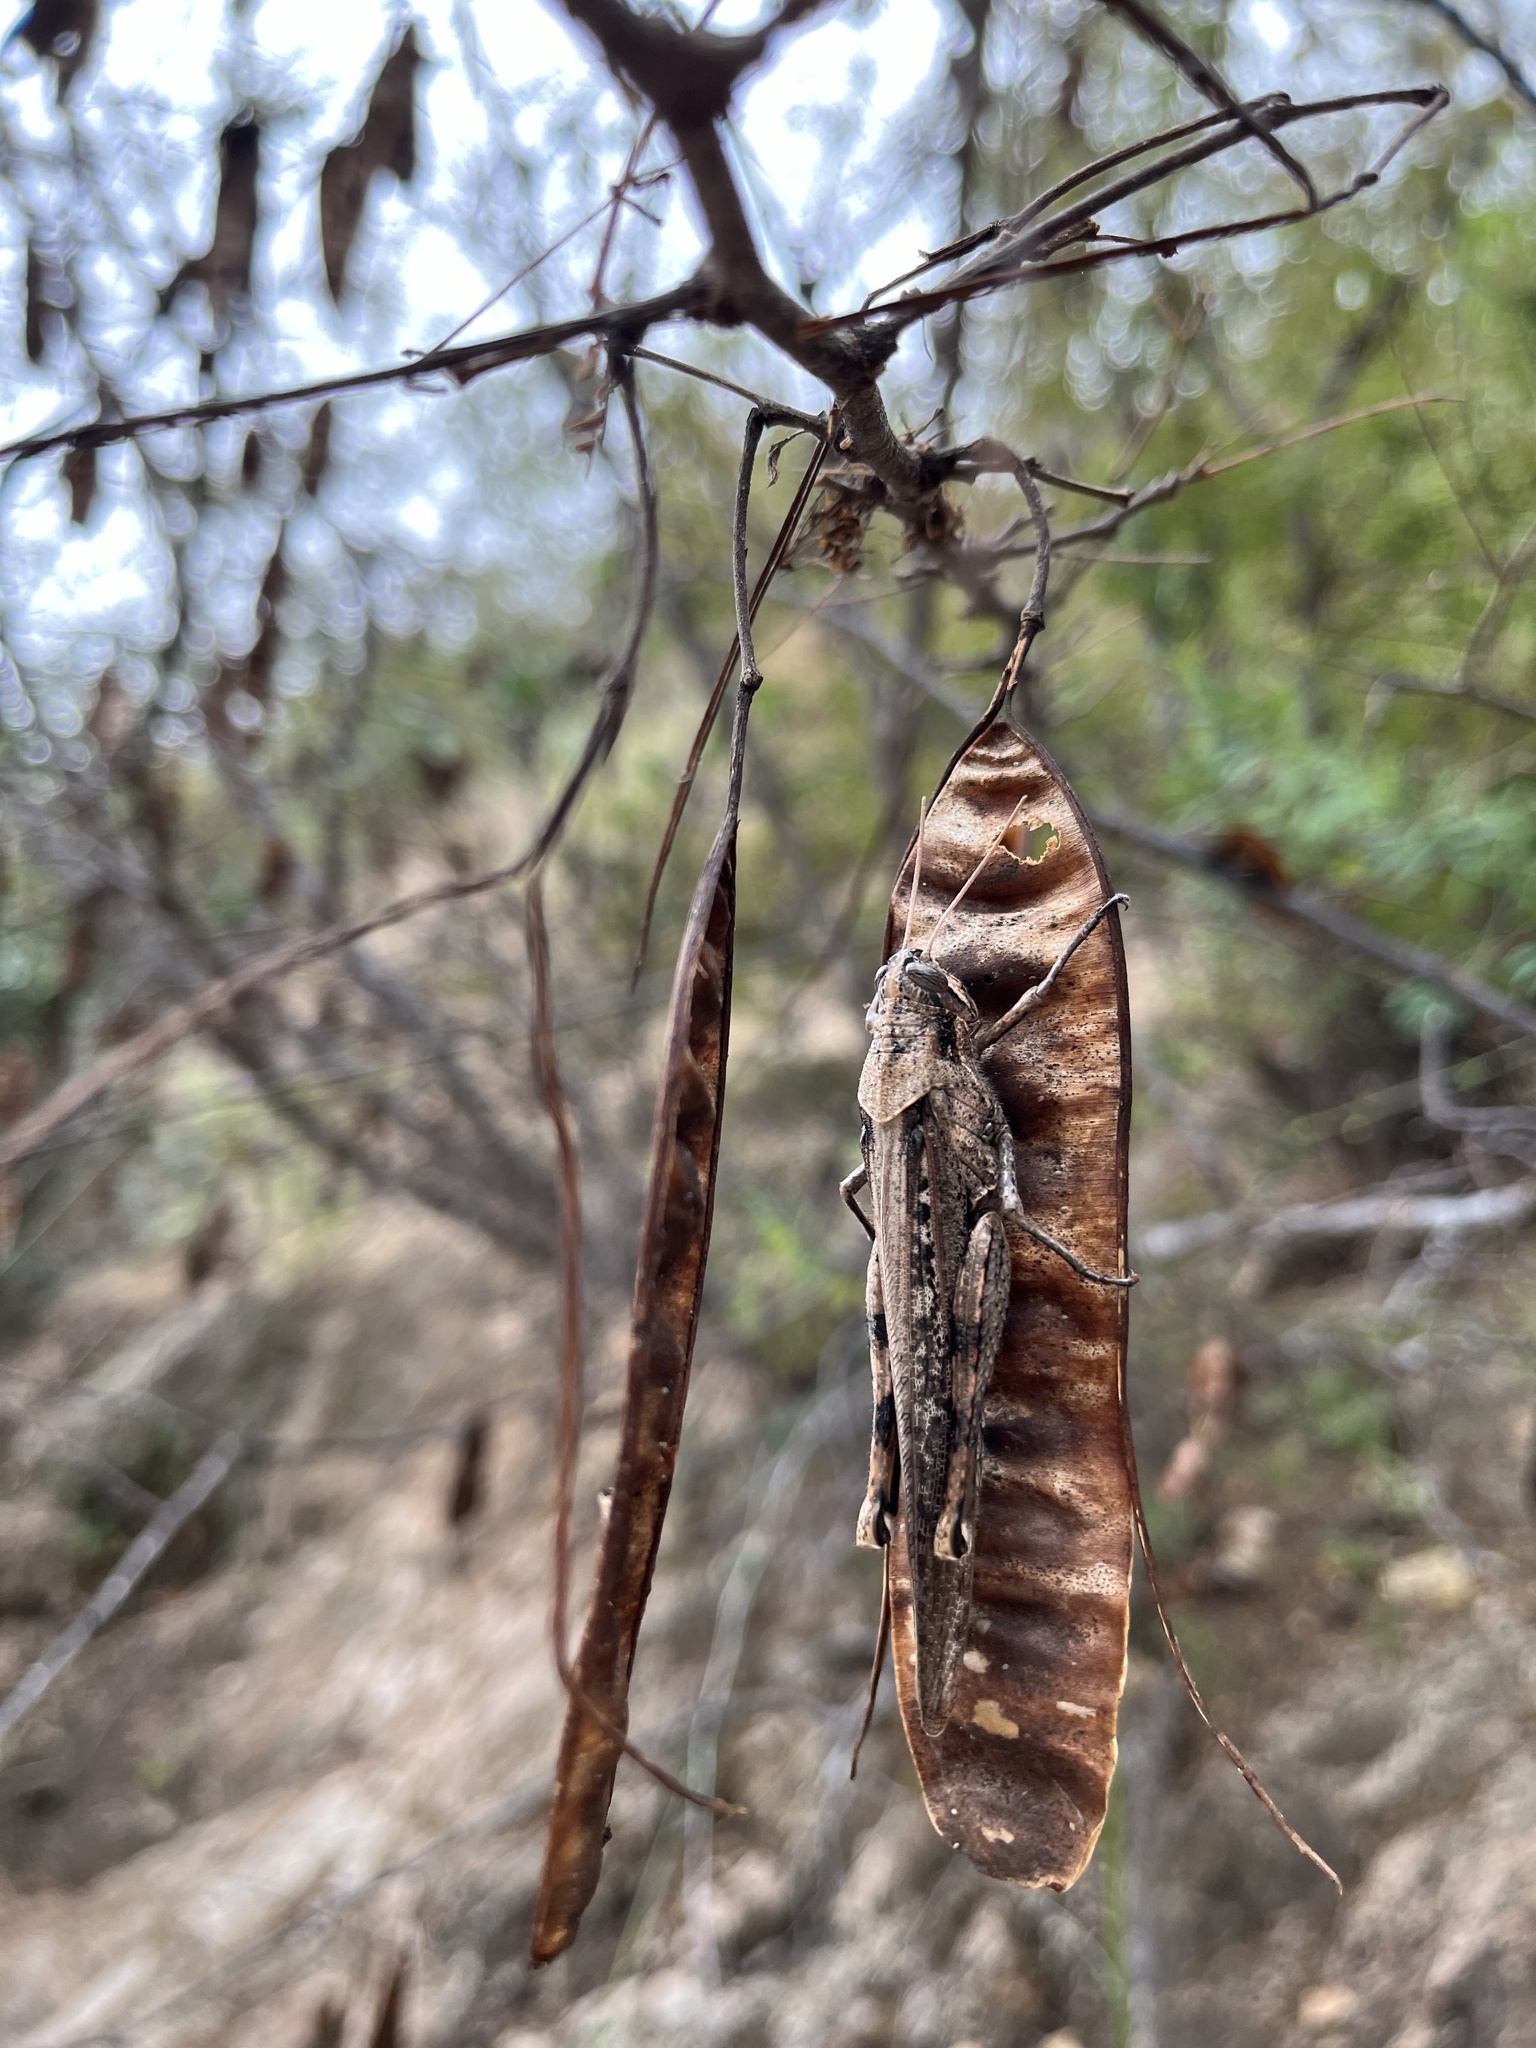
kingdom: Animalia
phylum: Arthropoda
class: Insecta
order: Orthoptera
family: Acrididae
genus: Schistocerca
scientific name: Schistocerca nitens
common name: Vagrant grasshopper
